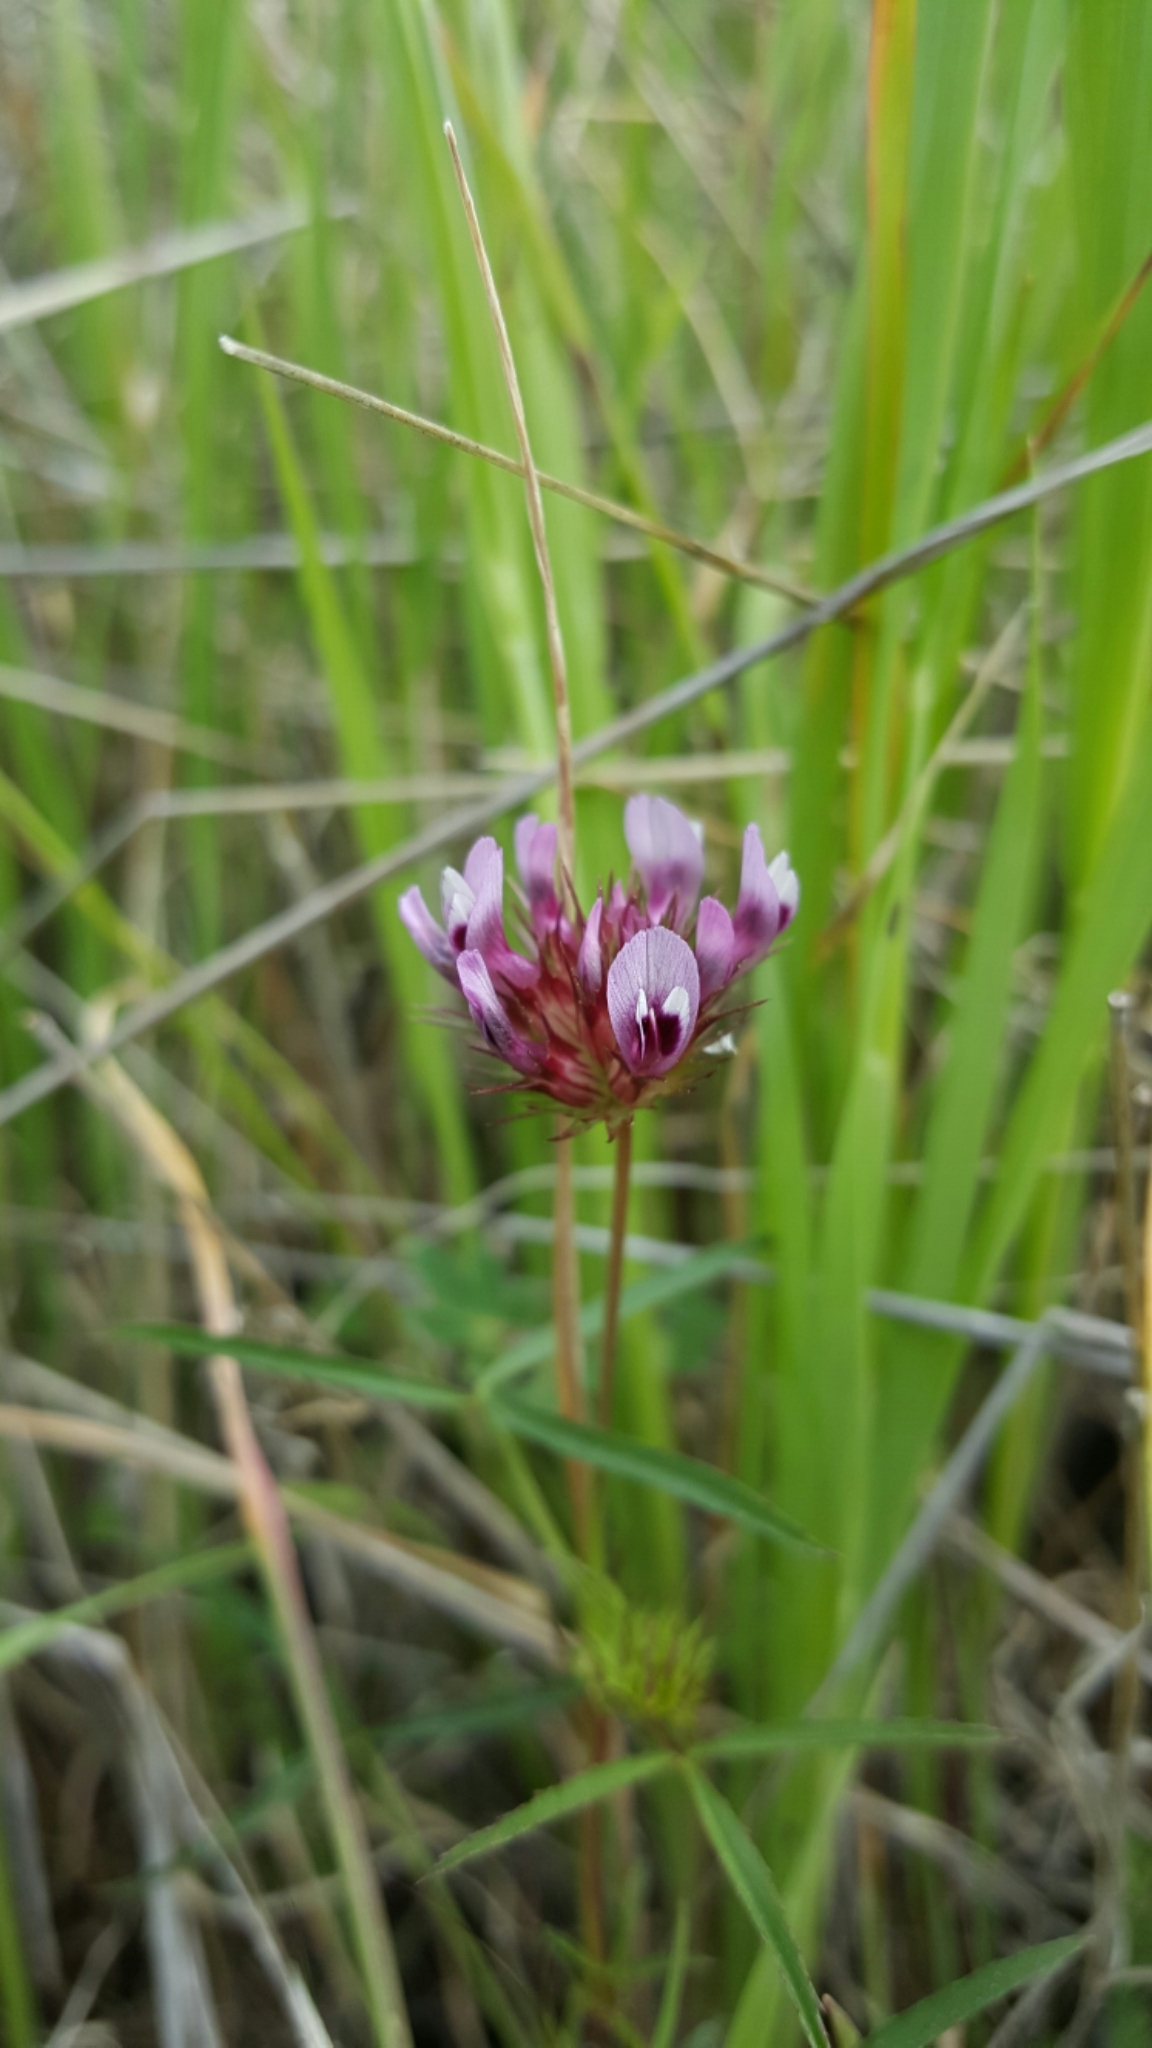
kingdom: Plantae
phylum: Tracheophyta
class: Magnoliopsida
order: Fabales
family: Fabaceae
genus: Trifolium
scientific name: Trifolium willdenovii
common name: Tomcat clover
